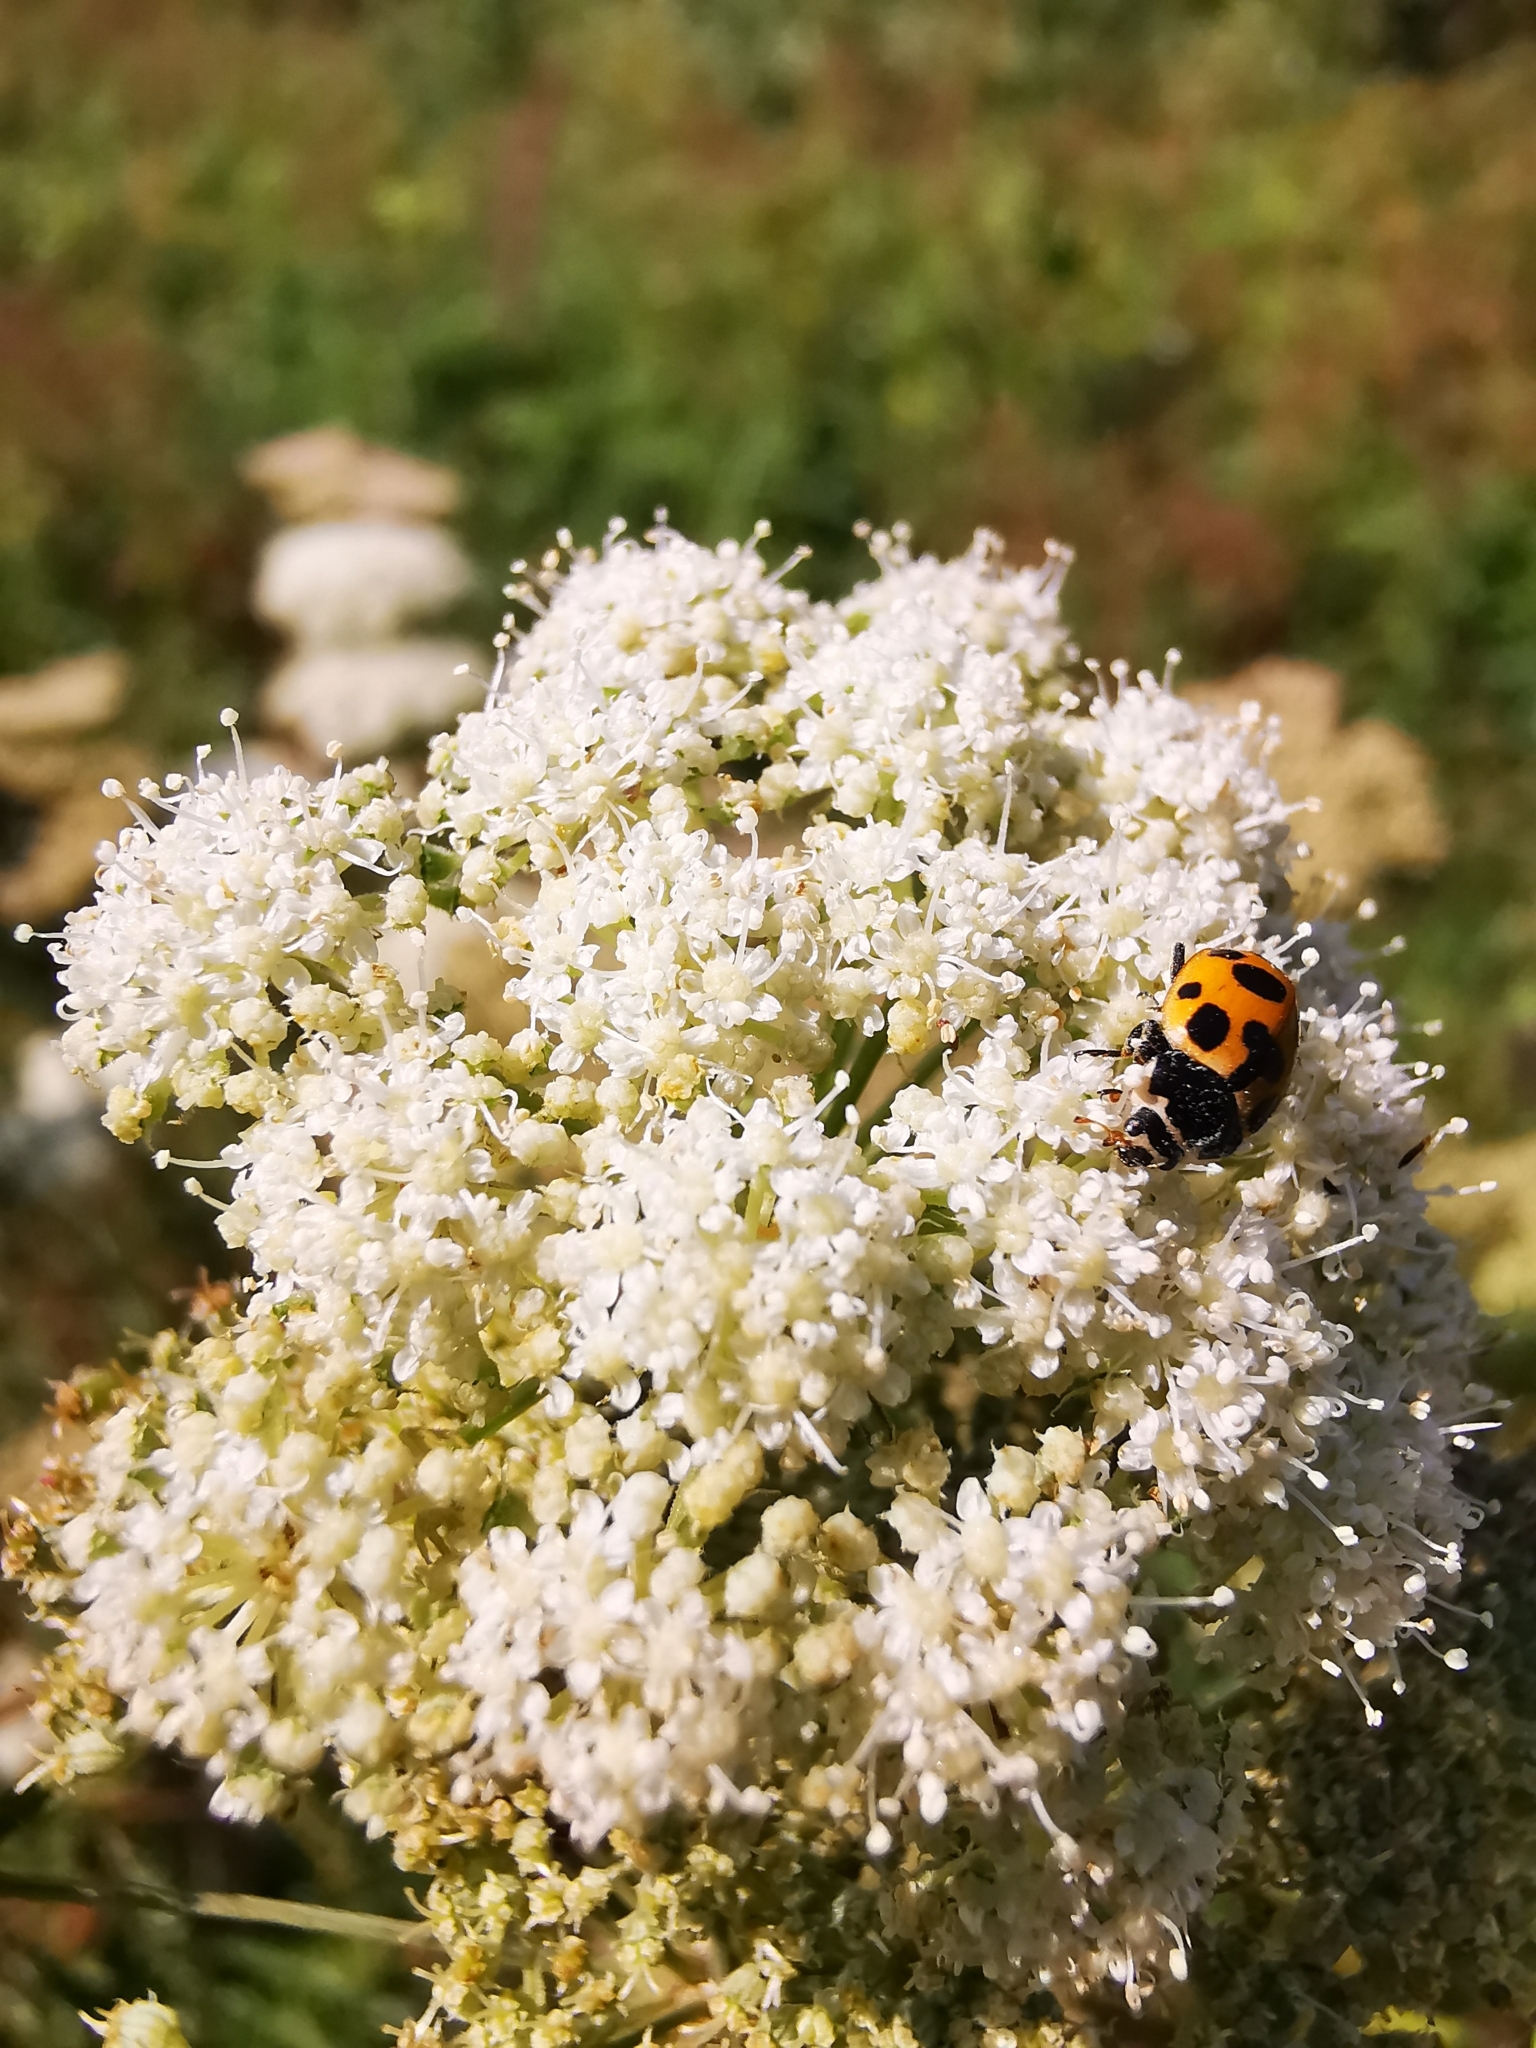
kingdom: Animalia
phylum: Arthropoda
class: Insecta
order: Coleoptera
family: Coccinellidae
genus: Ceratomegilla
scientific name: Ceratomegilla notata
